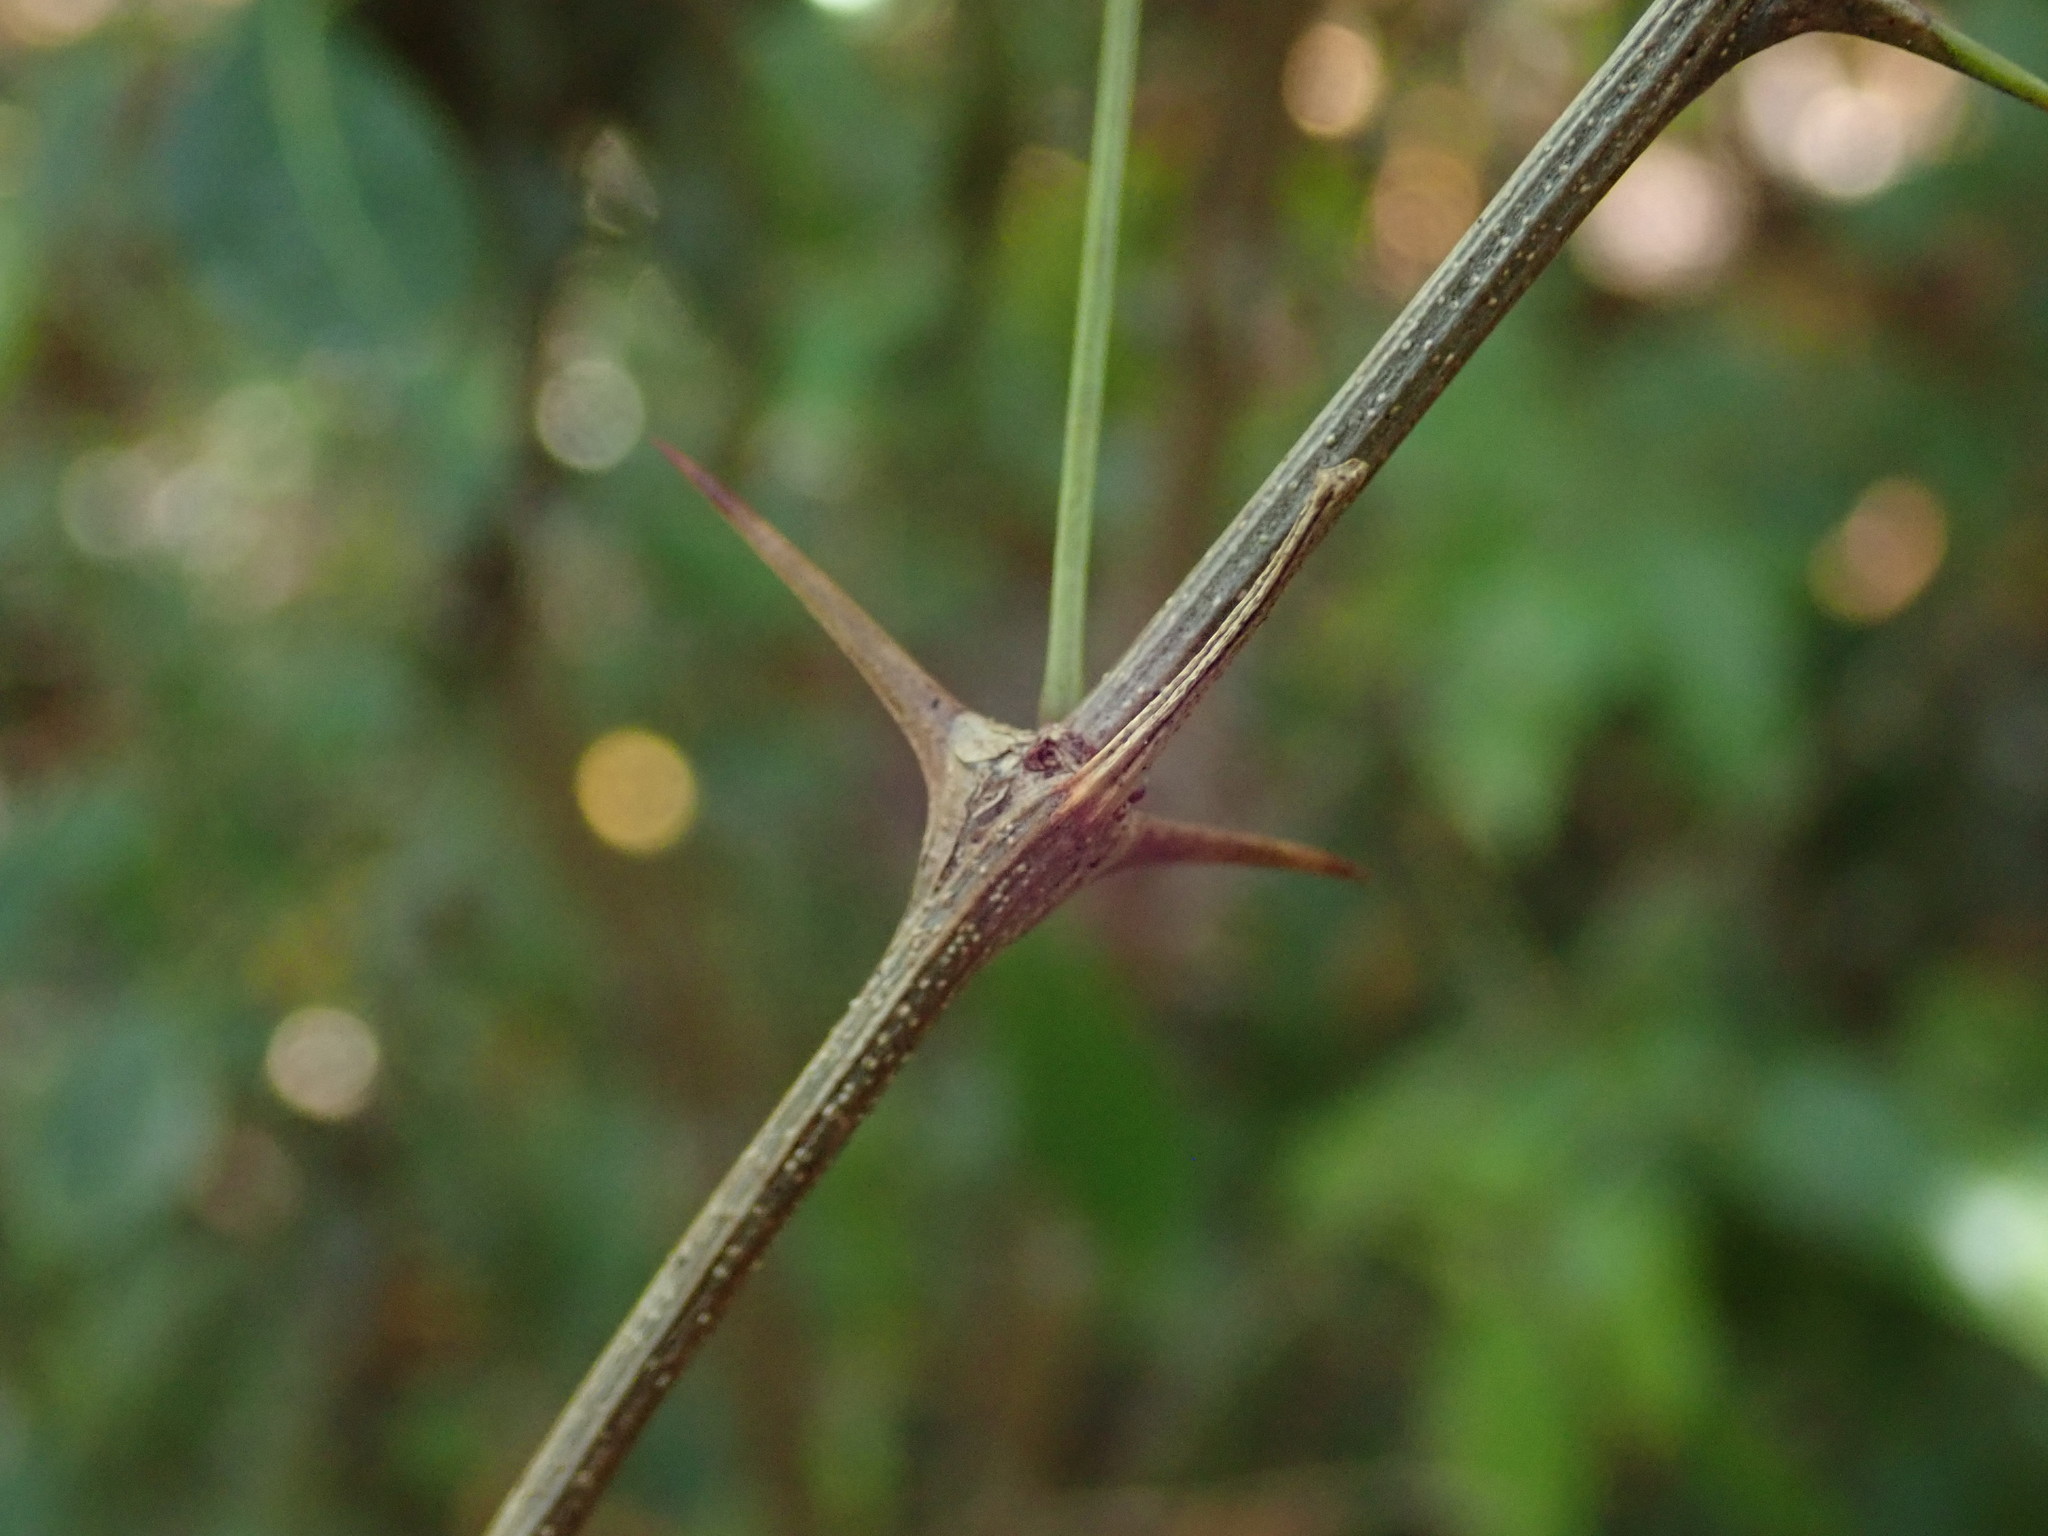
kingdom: Plantae
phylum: Tracheophyta
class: Magnoliopsida
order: Fabales
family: Fabaceae
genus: Pithecellobium
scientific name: Pithecellobium unguis-cati
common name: Cat's-claw
